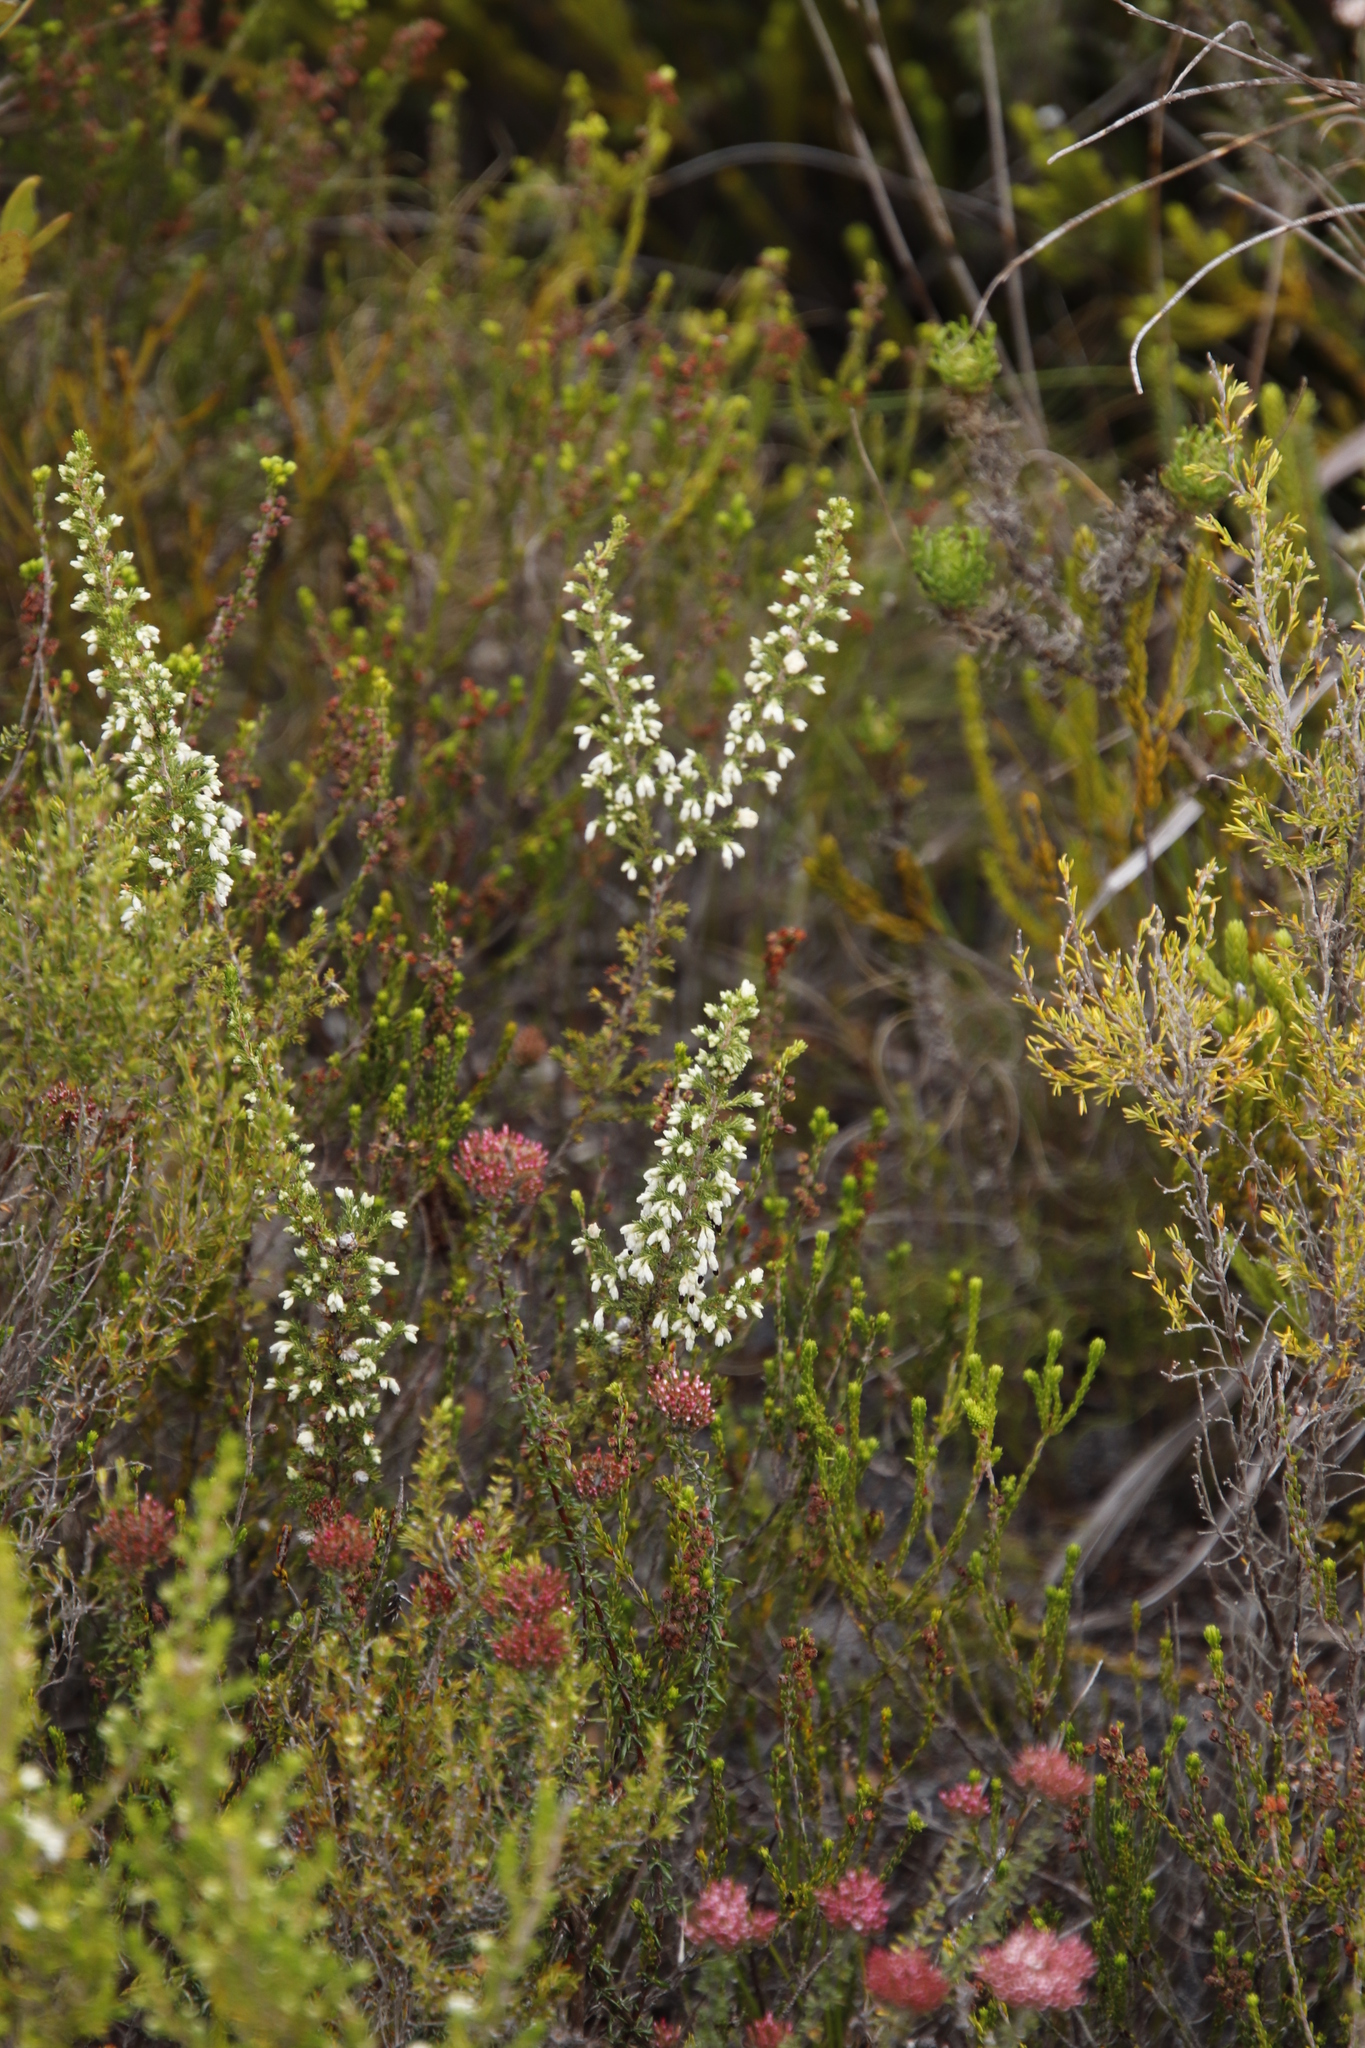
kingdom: Plantae
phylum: Tracheophyta
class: Magnoliopsida
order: Ericales
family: Ericaceae
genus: Erica
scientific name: Erica imbricata
